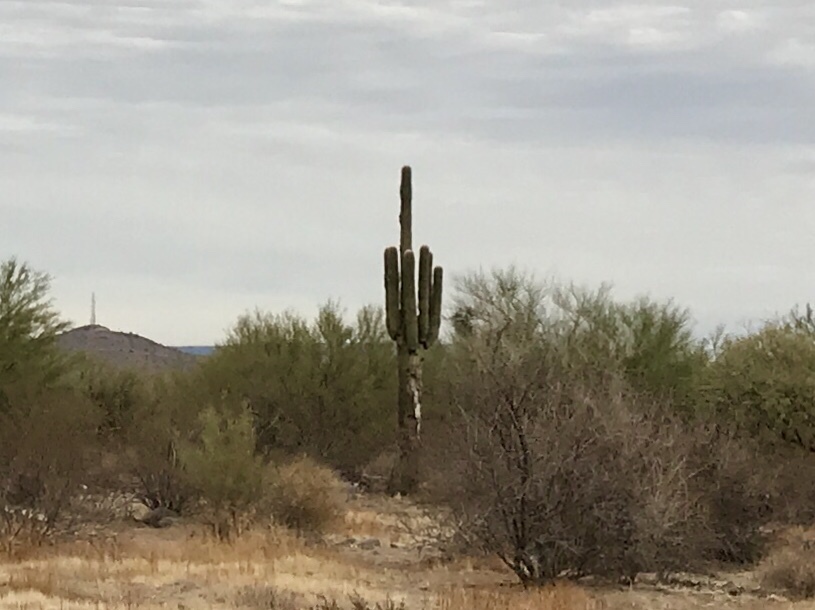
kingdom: Plantae
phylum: Tracheophyta
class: Magnoliopsida
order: Caryophyllales
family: Cactaceae
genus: Carnegiea
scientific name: Carnegiea gigantea
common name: Saguaro
